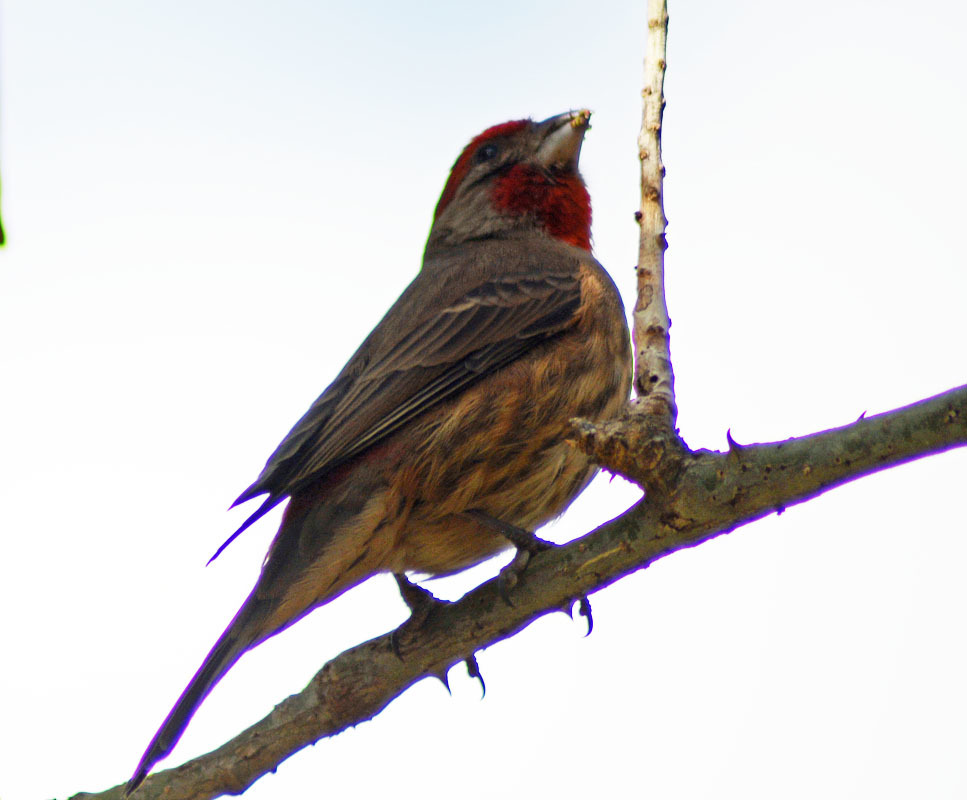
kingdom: Animalia
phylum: Chordata
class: Aves
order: Passeriformes
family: Fringillidae
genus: Haemorhous
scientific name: Haemorhous mexicanus
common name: House finch
